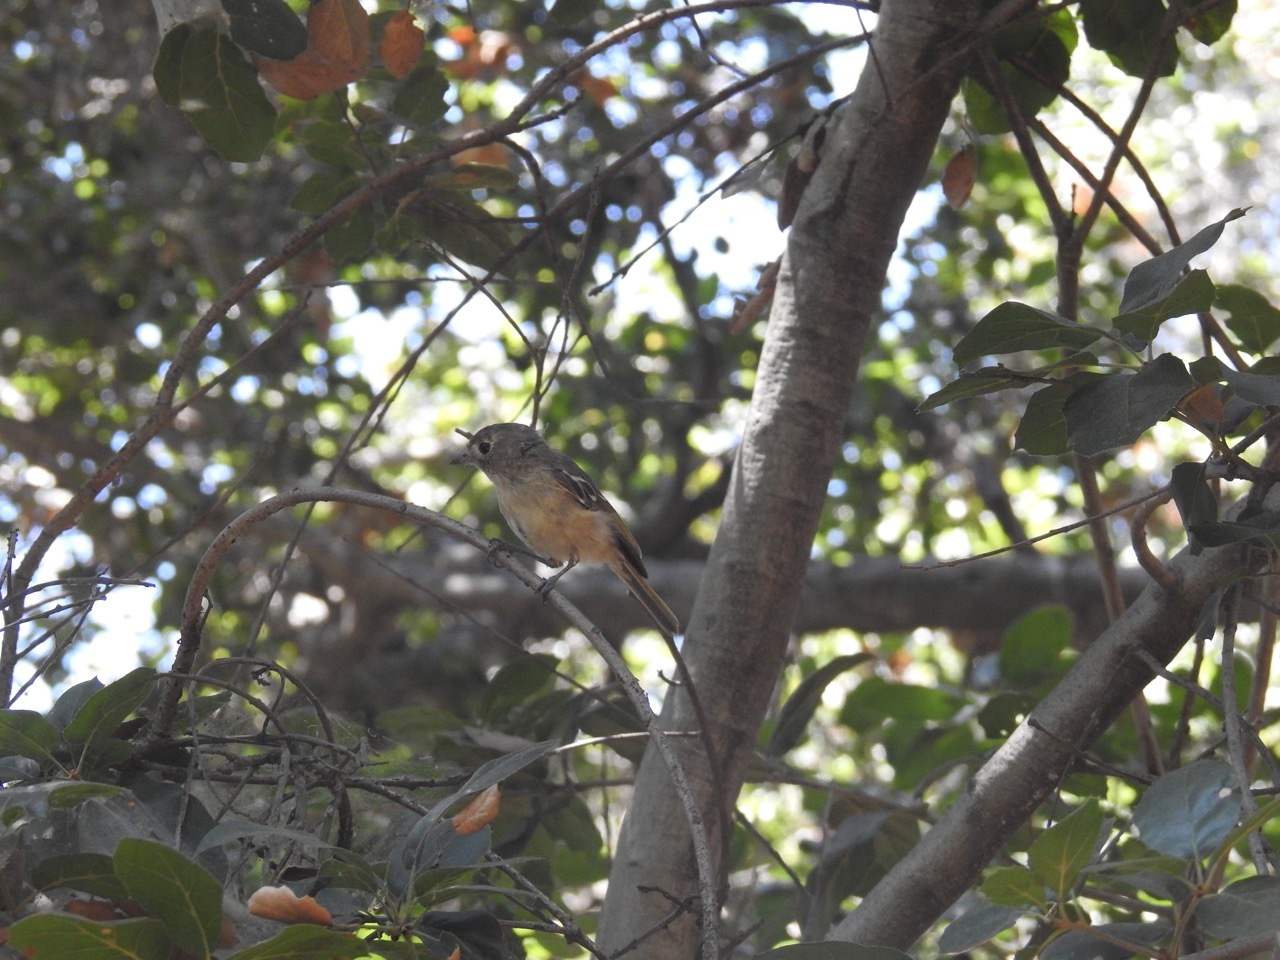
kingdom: Animalia
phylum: Chordata
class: Aves
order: Passeriformes
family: Vireonidae
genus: Vireo
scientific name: Vireo huttoni
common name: Hutton's vireo
